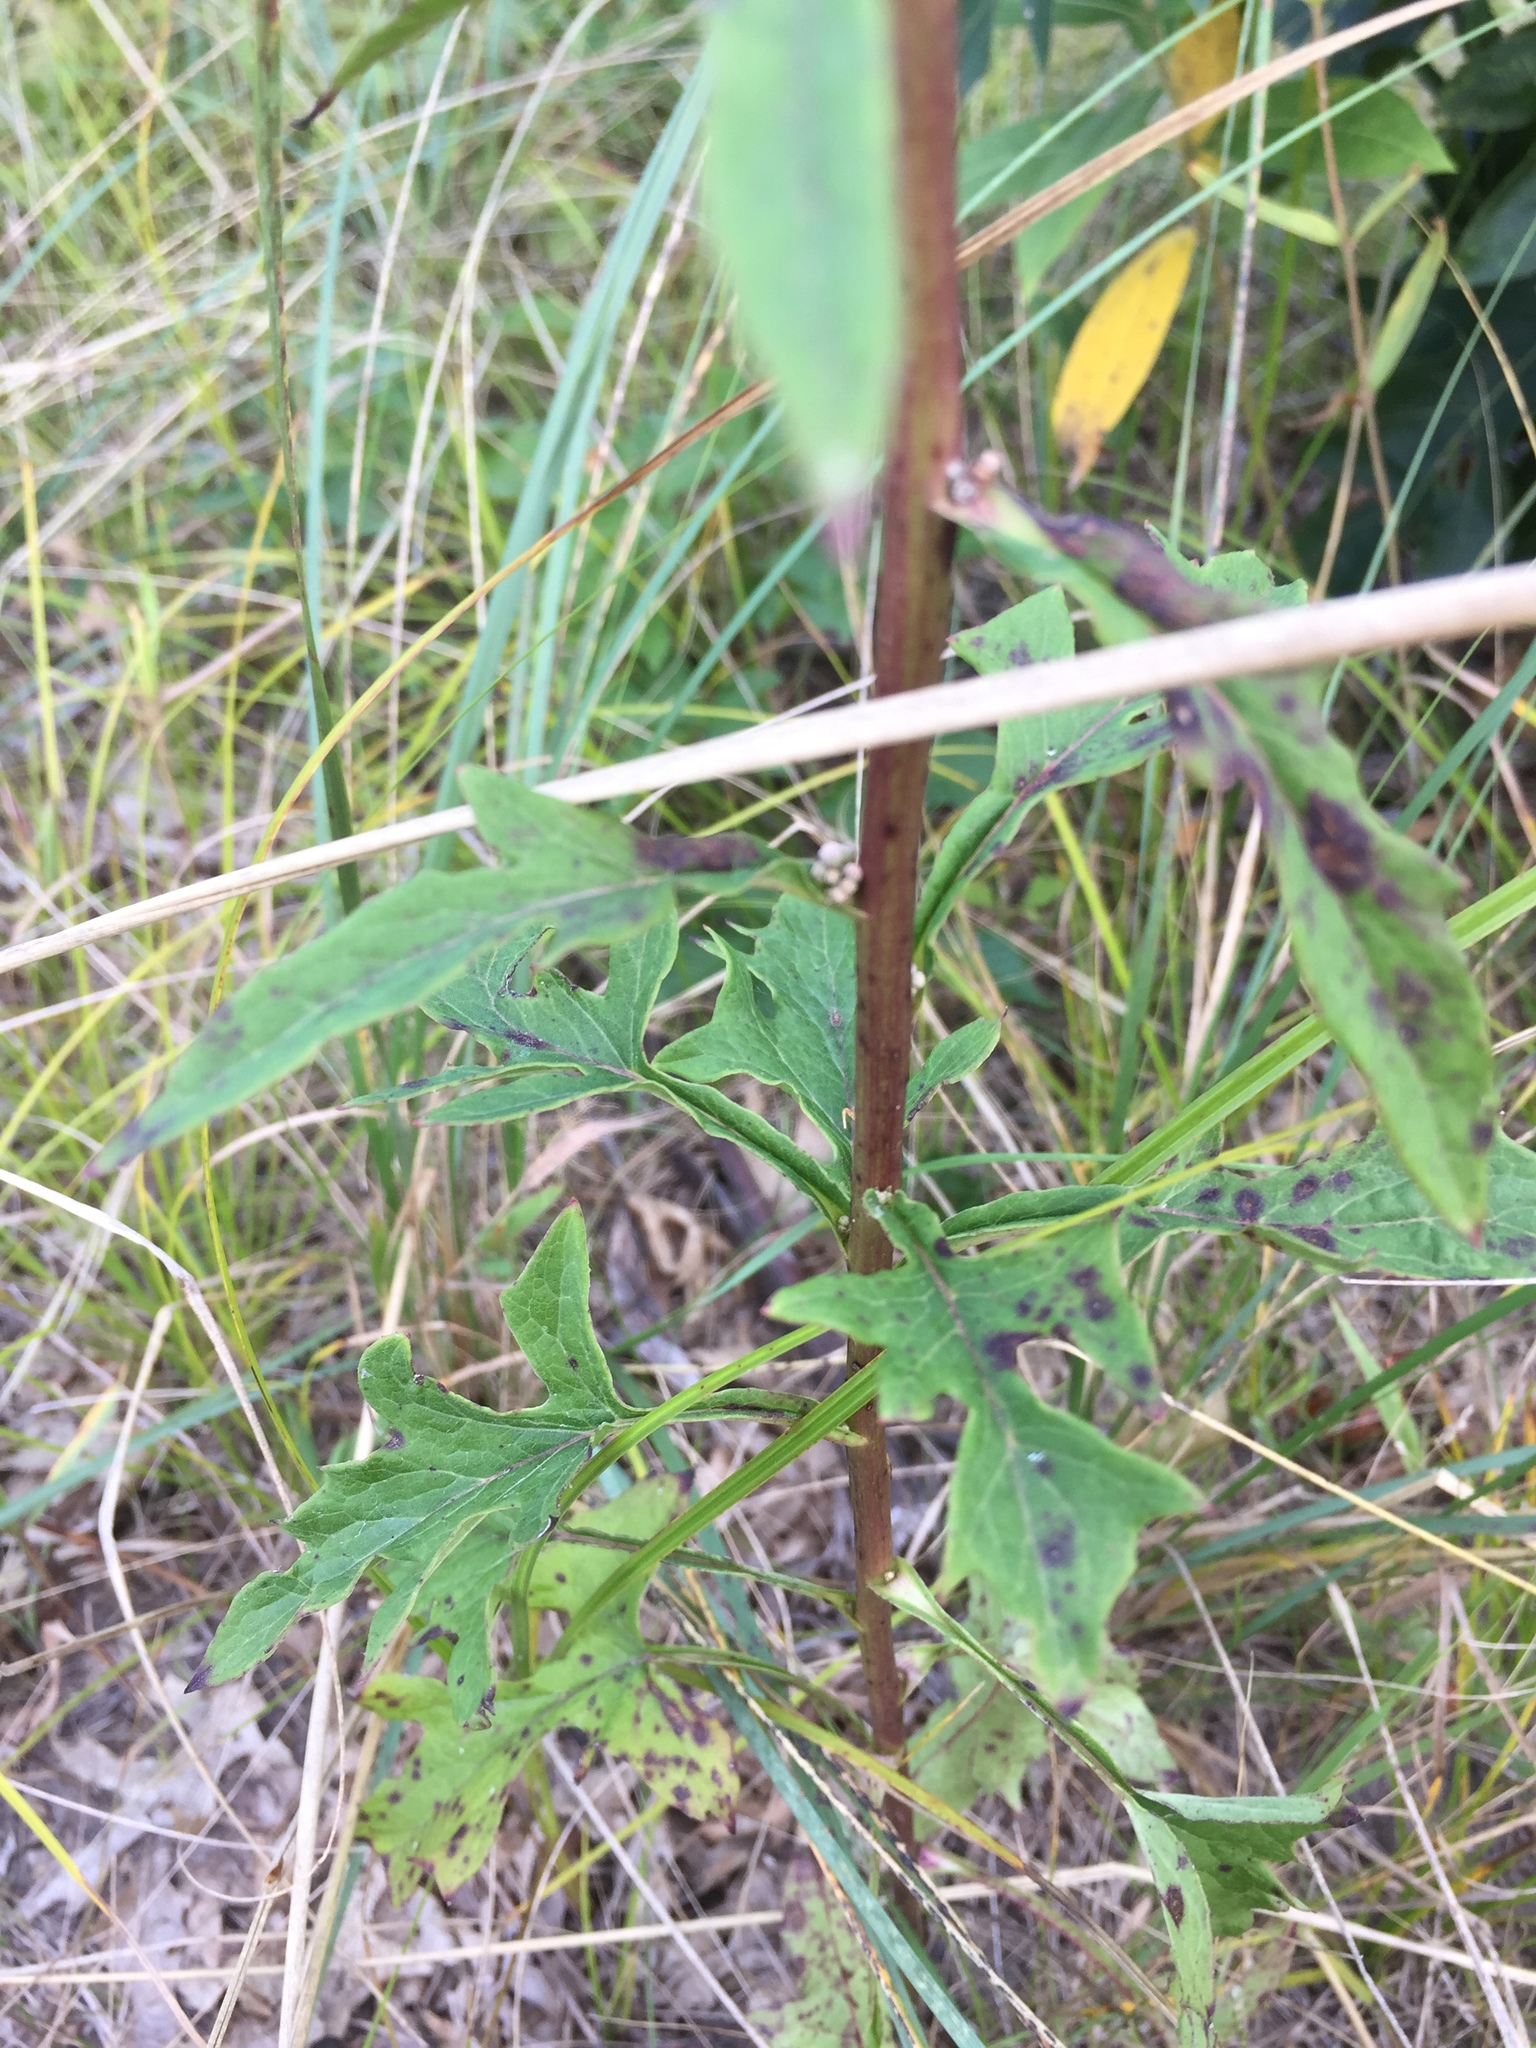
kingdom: Plantae
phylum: Tracheophyta
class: Magnoliopsida
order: Asterales
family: Asteraceae
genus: Nabalus
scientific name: Nabalus albus
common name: White rattlesnakeroot
